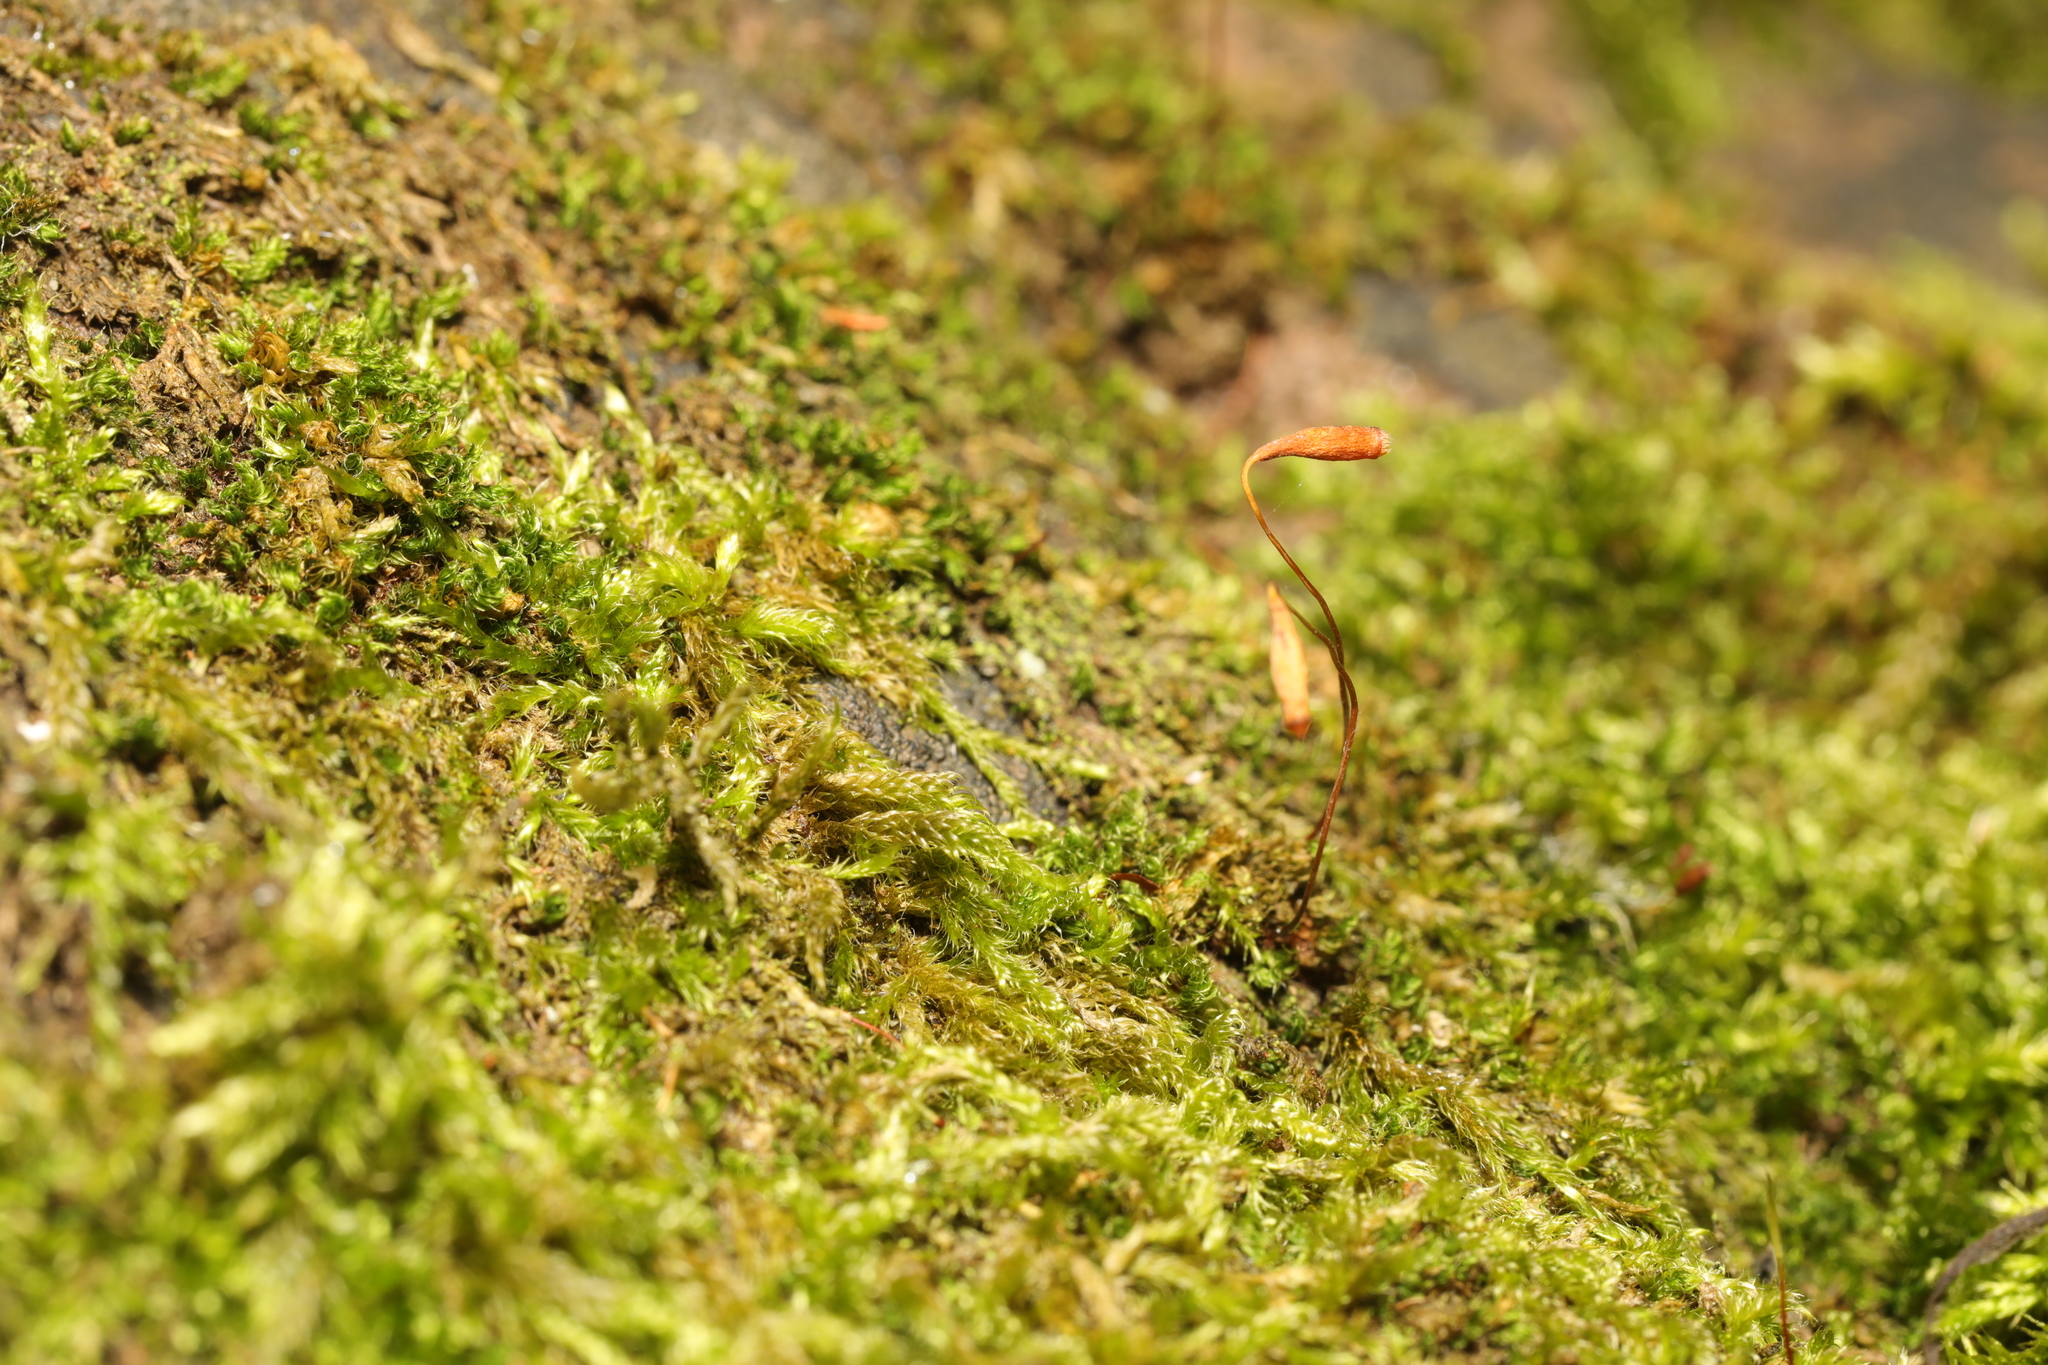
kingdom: Plantae
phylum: Bryophyta
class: Bryopsida
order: Bryales
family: Bryaceae
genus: Rosulabryum
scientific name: Rosulabryum capillare
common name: Capillary thread-moss
